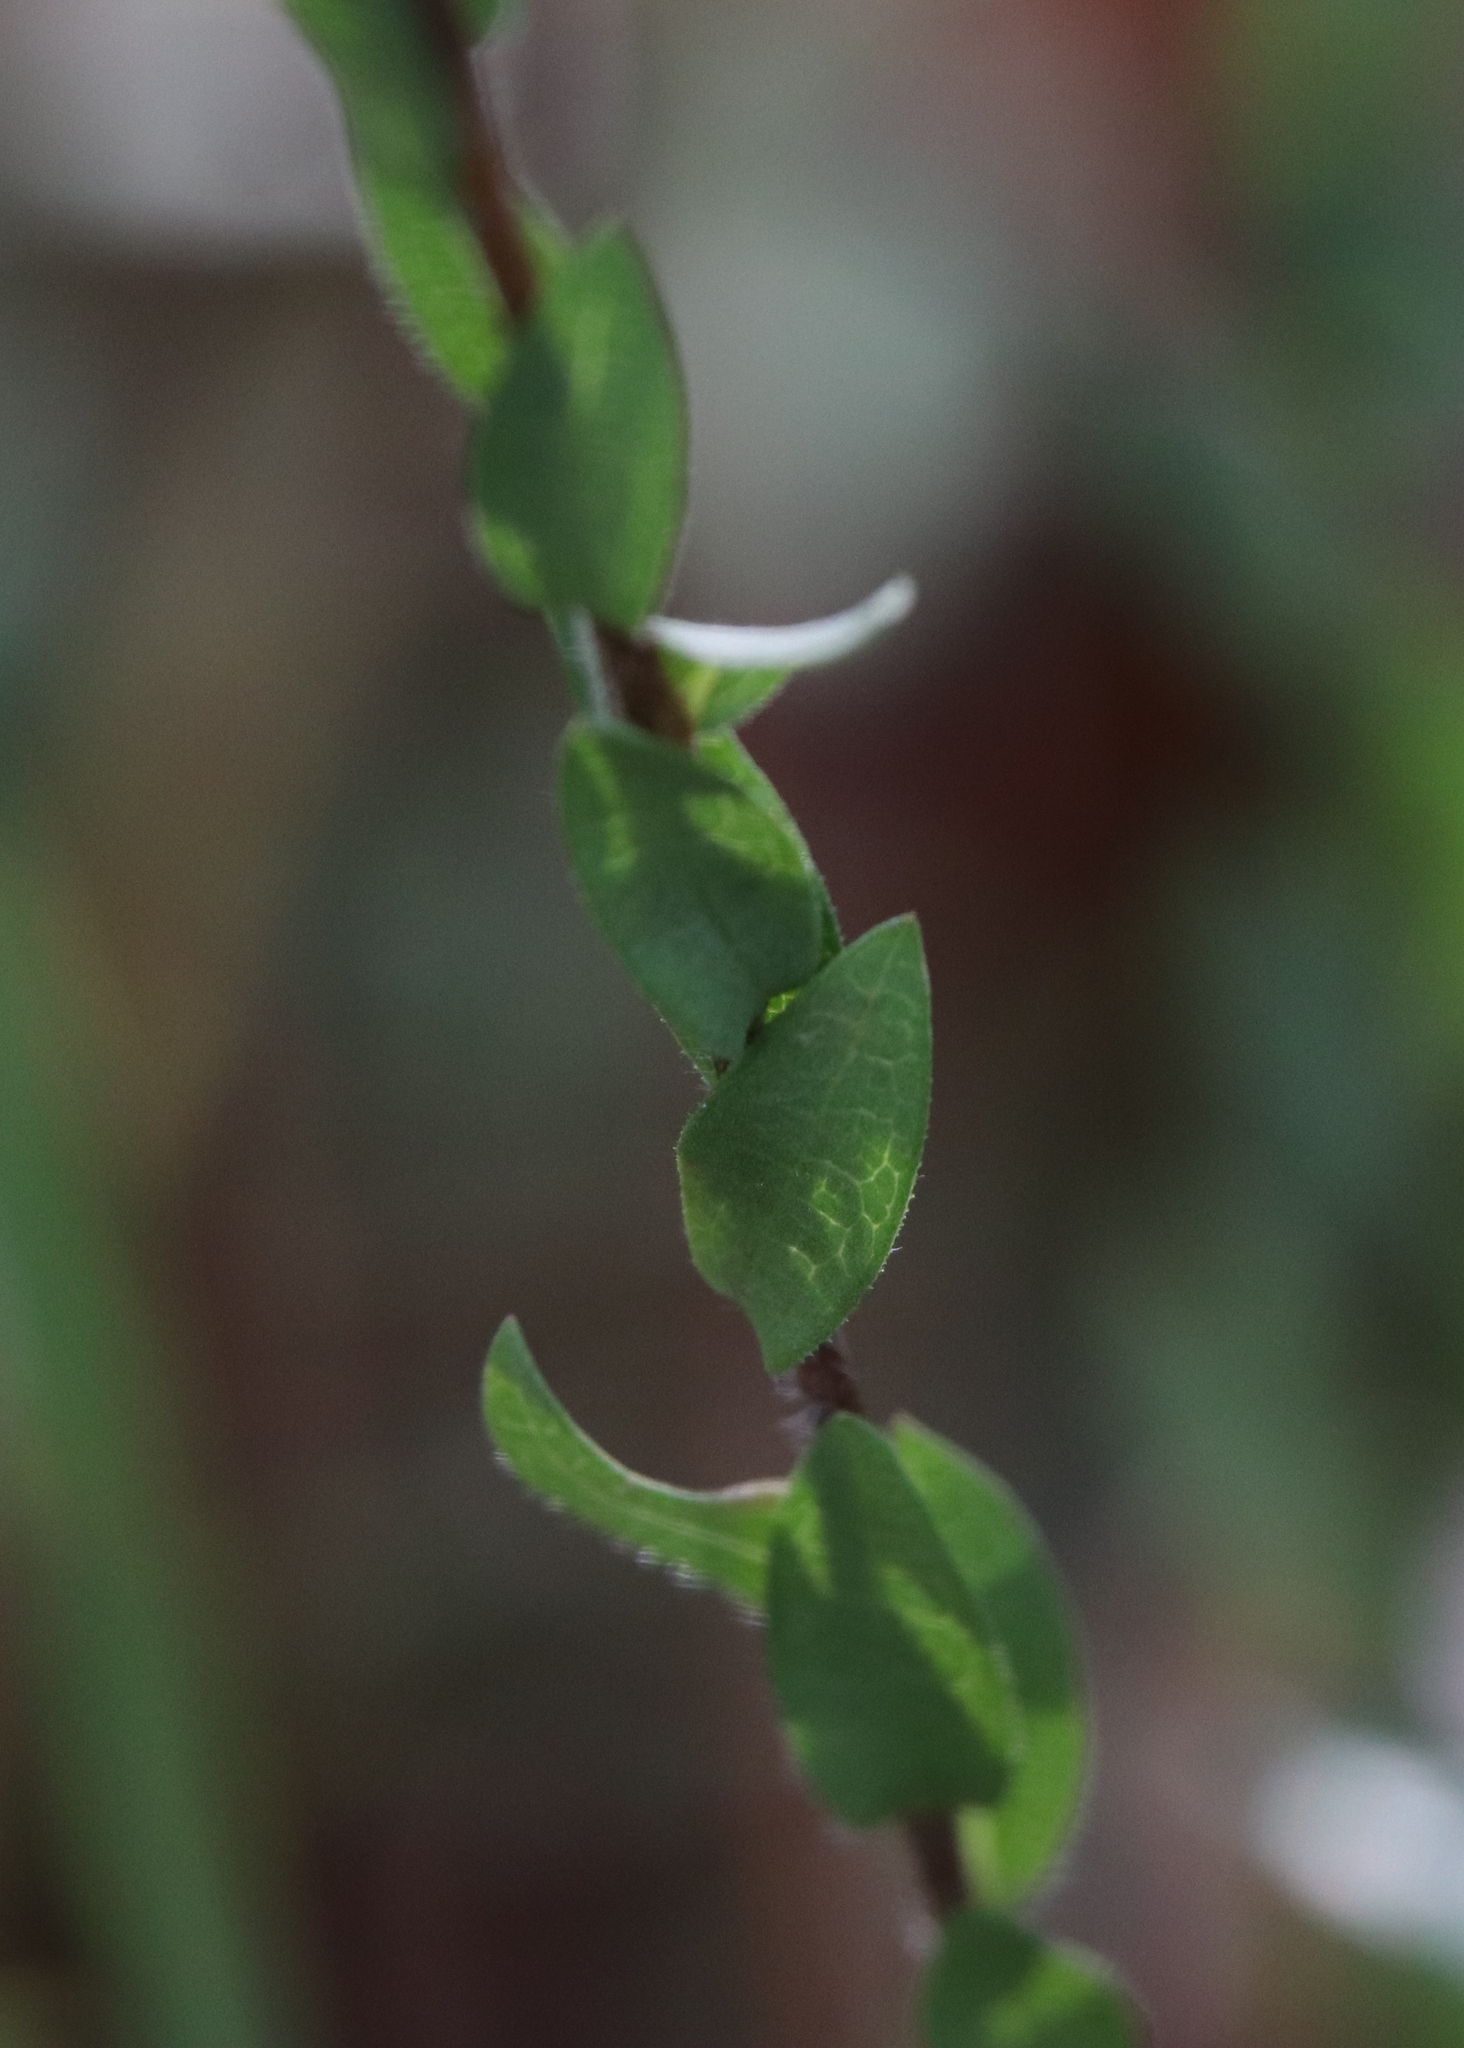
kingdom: Plantae
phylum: Tracheophyta
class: Magnoliopsida
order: Asterales
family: Asteraceae
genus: Symphyotrichum
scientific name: Symphyotrichum concolor
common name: Eastern silver aster
